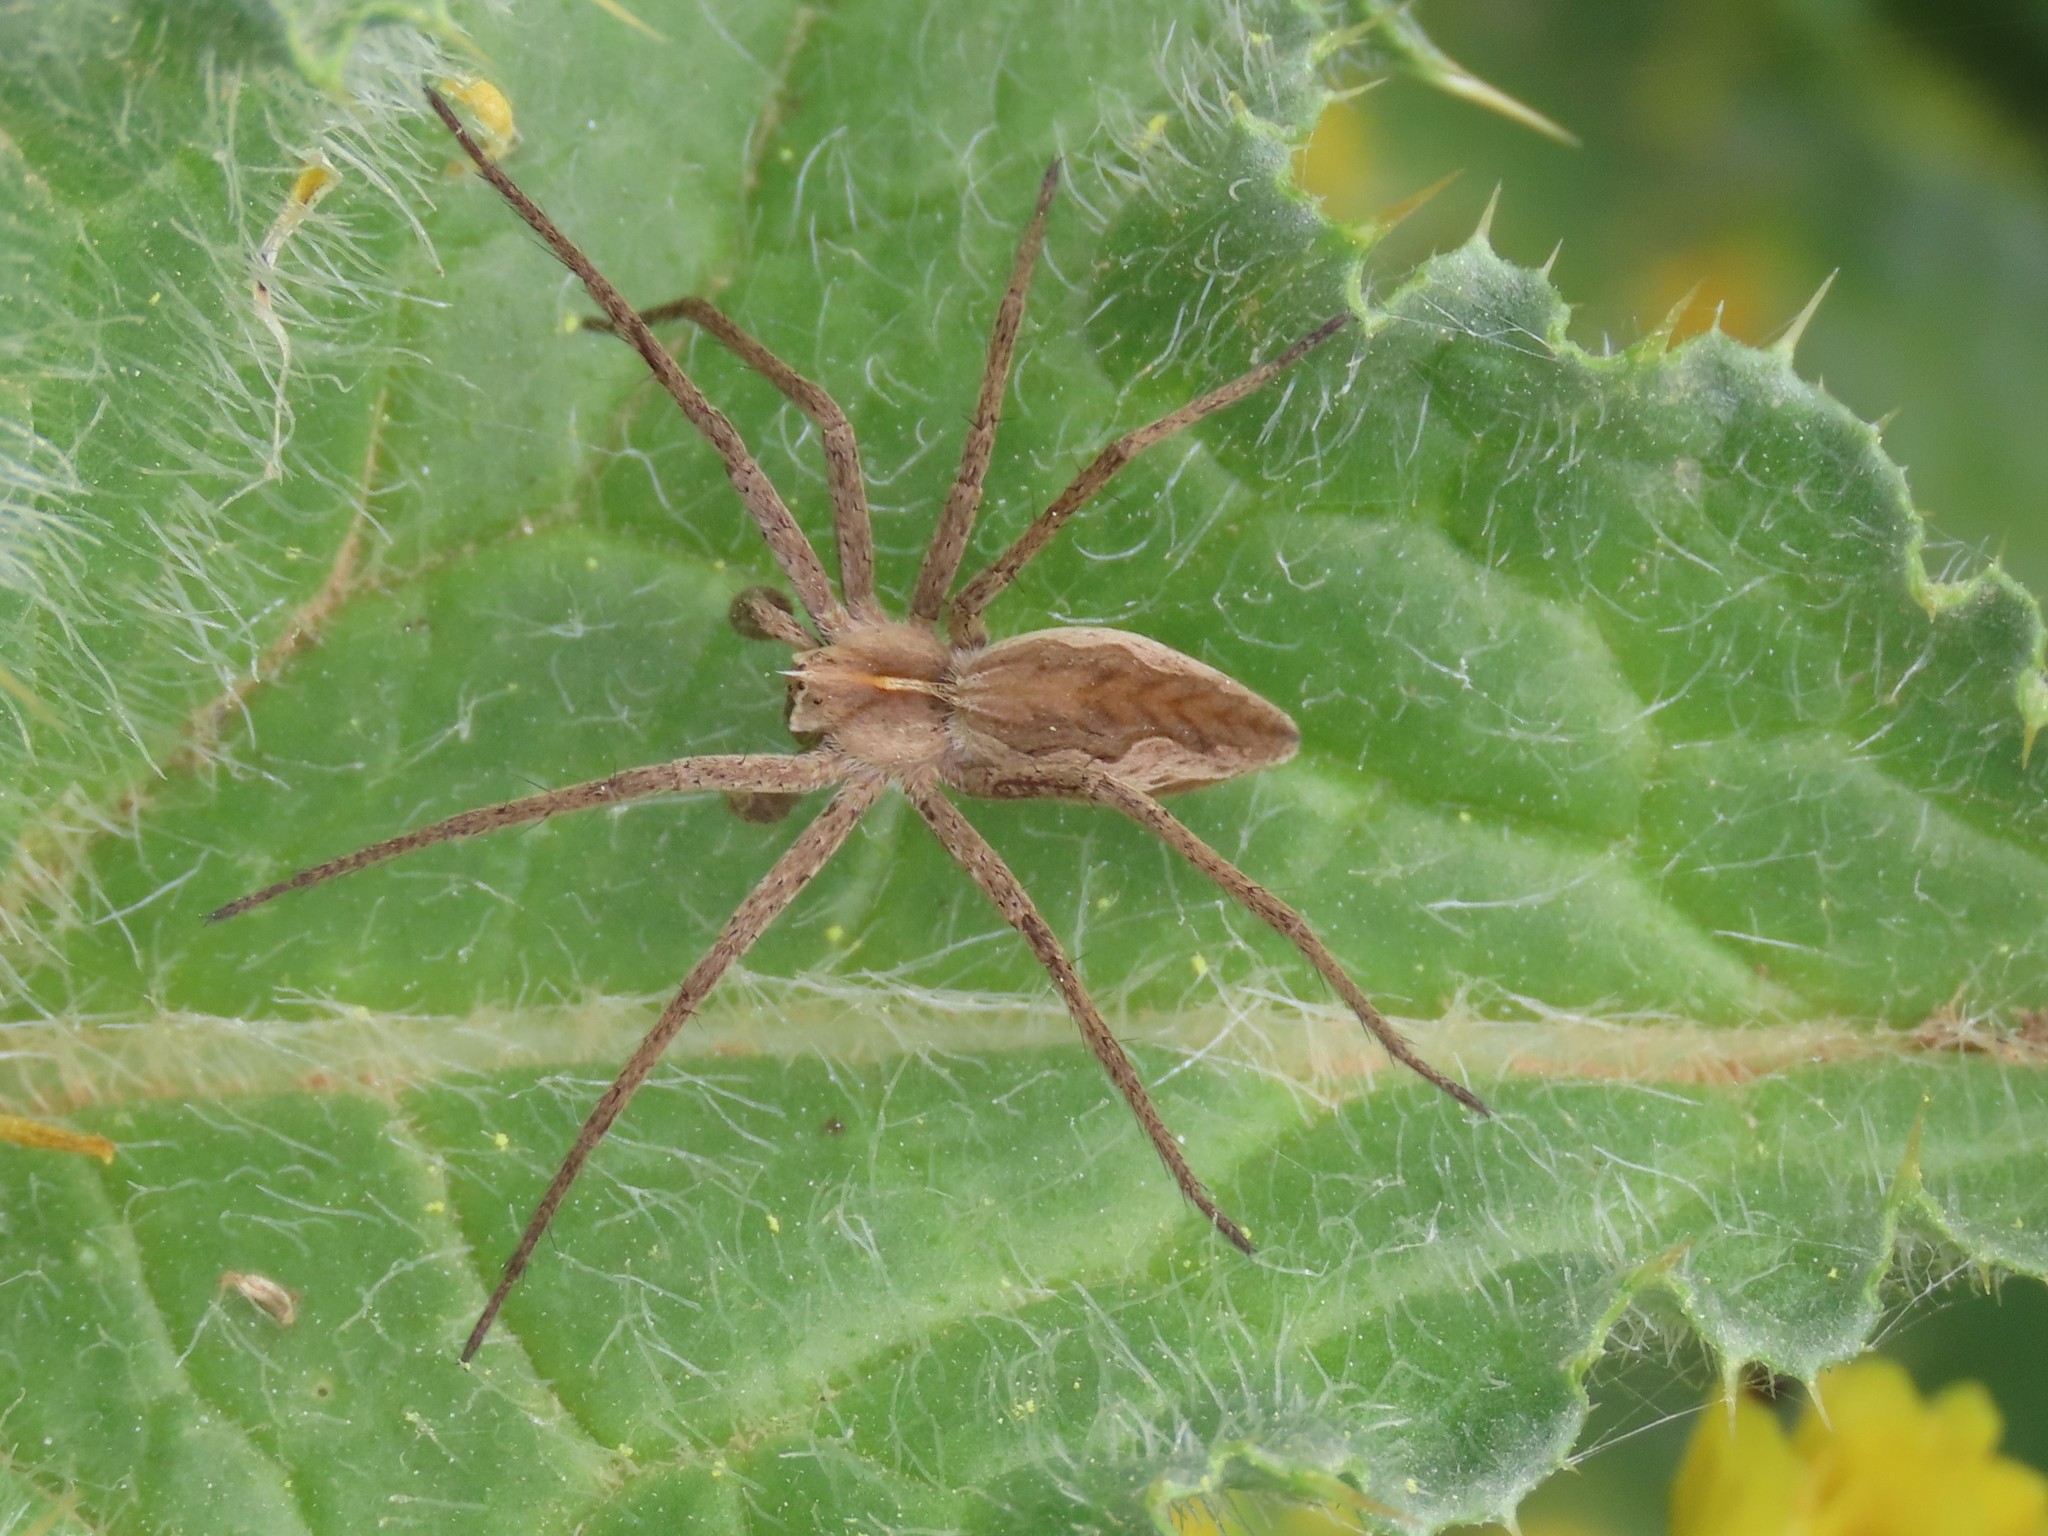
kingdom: Animalia
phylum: Arthropoda
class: Arachnida
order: Araneae
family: Pisauridae
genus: Pisaura
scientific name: Pisaura mirabilis
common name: Tent spider
